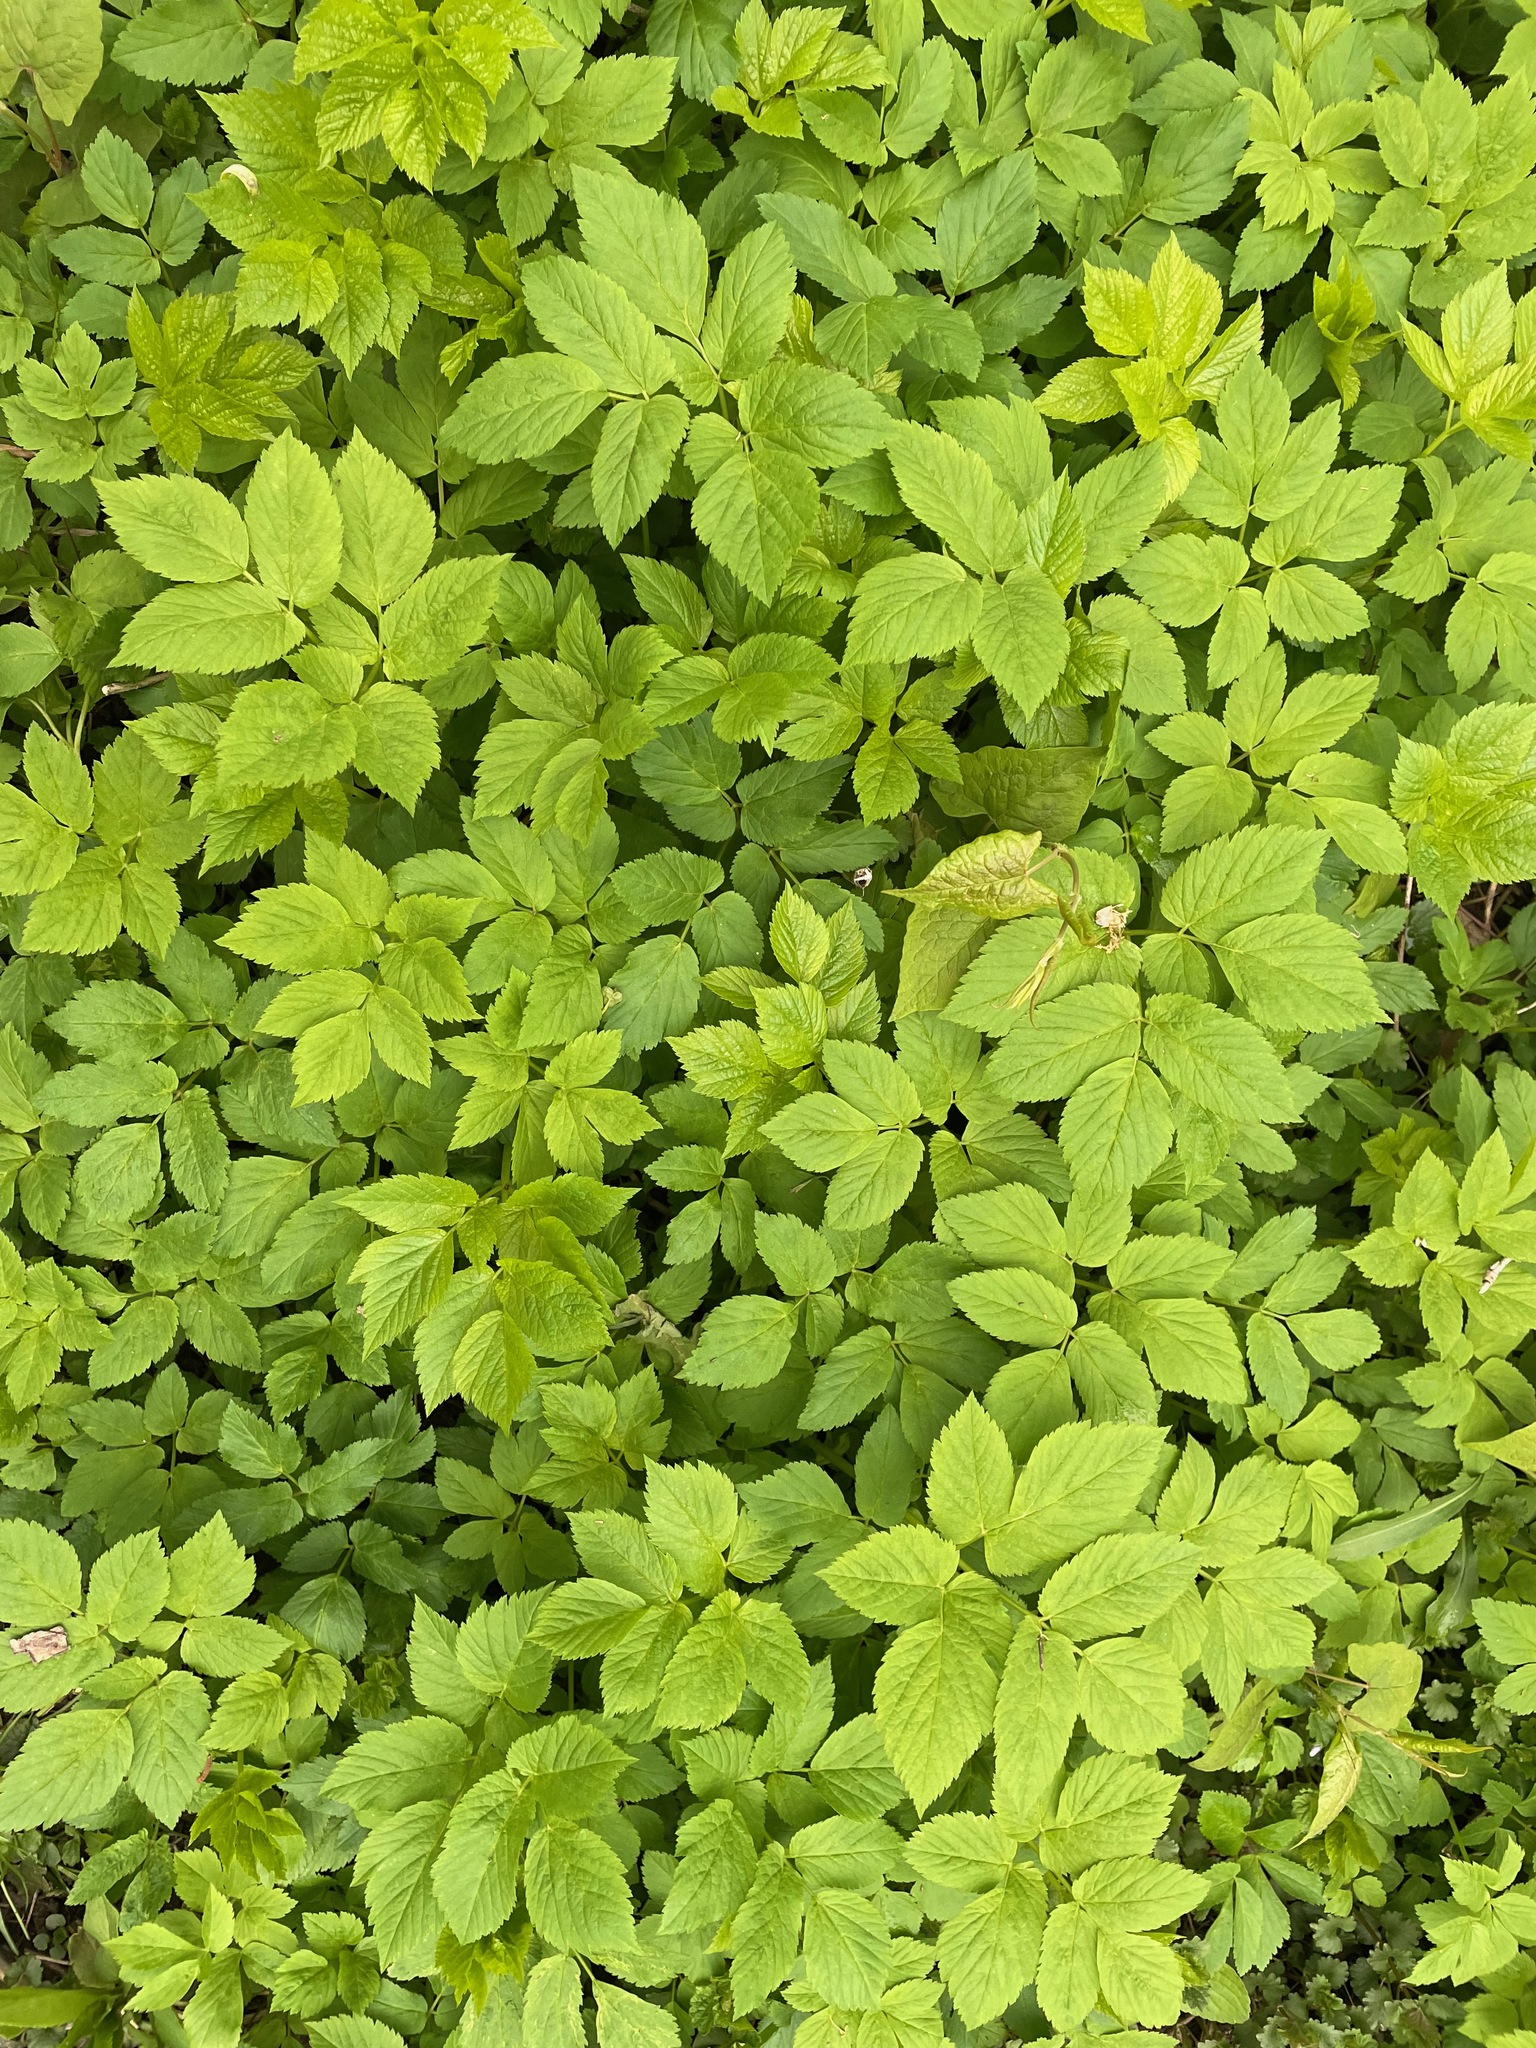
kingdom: Plantae
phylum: Tracheophyta
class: Magnoliopsida
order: Apiales
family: Apiaceae
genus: Aegopodium
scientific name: Aegopodium podagraria
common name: Ground-elder
